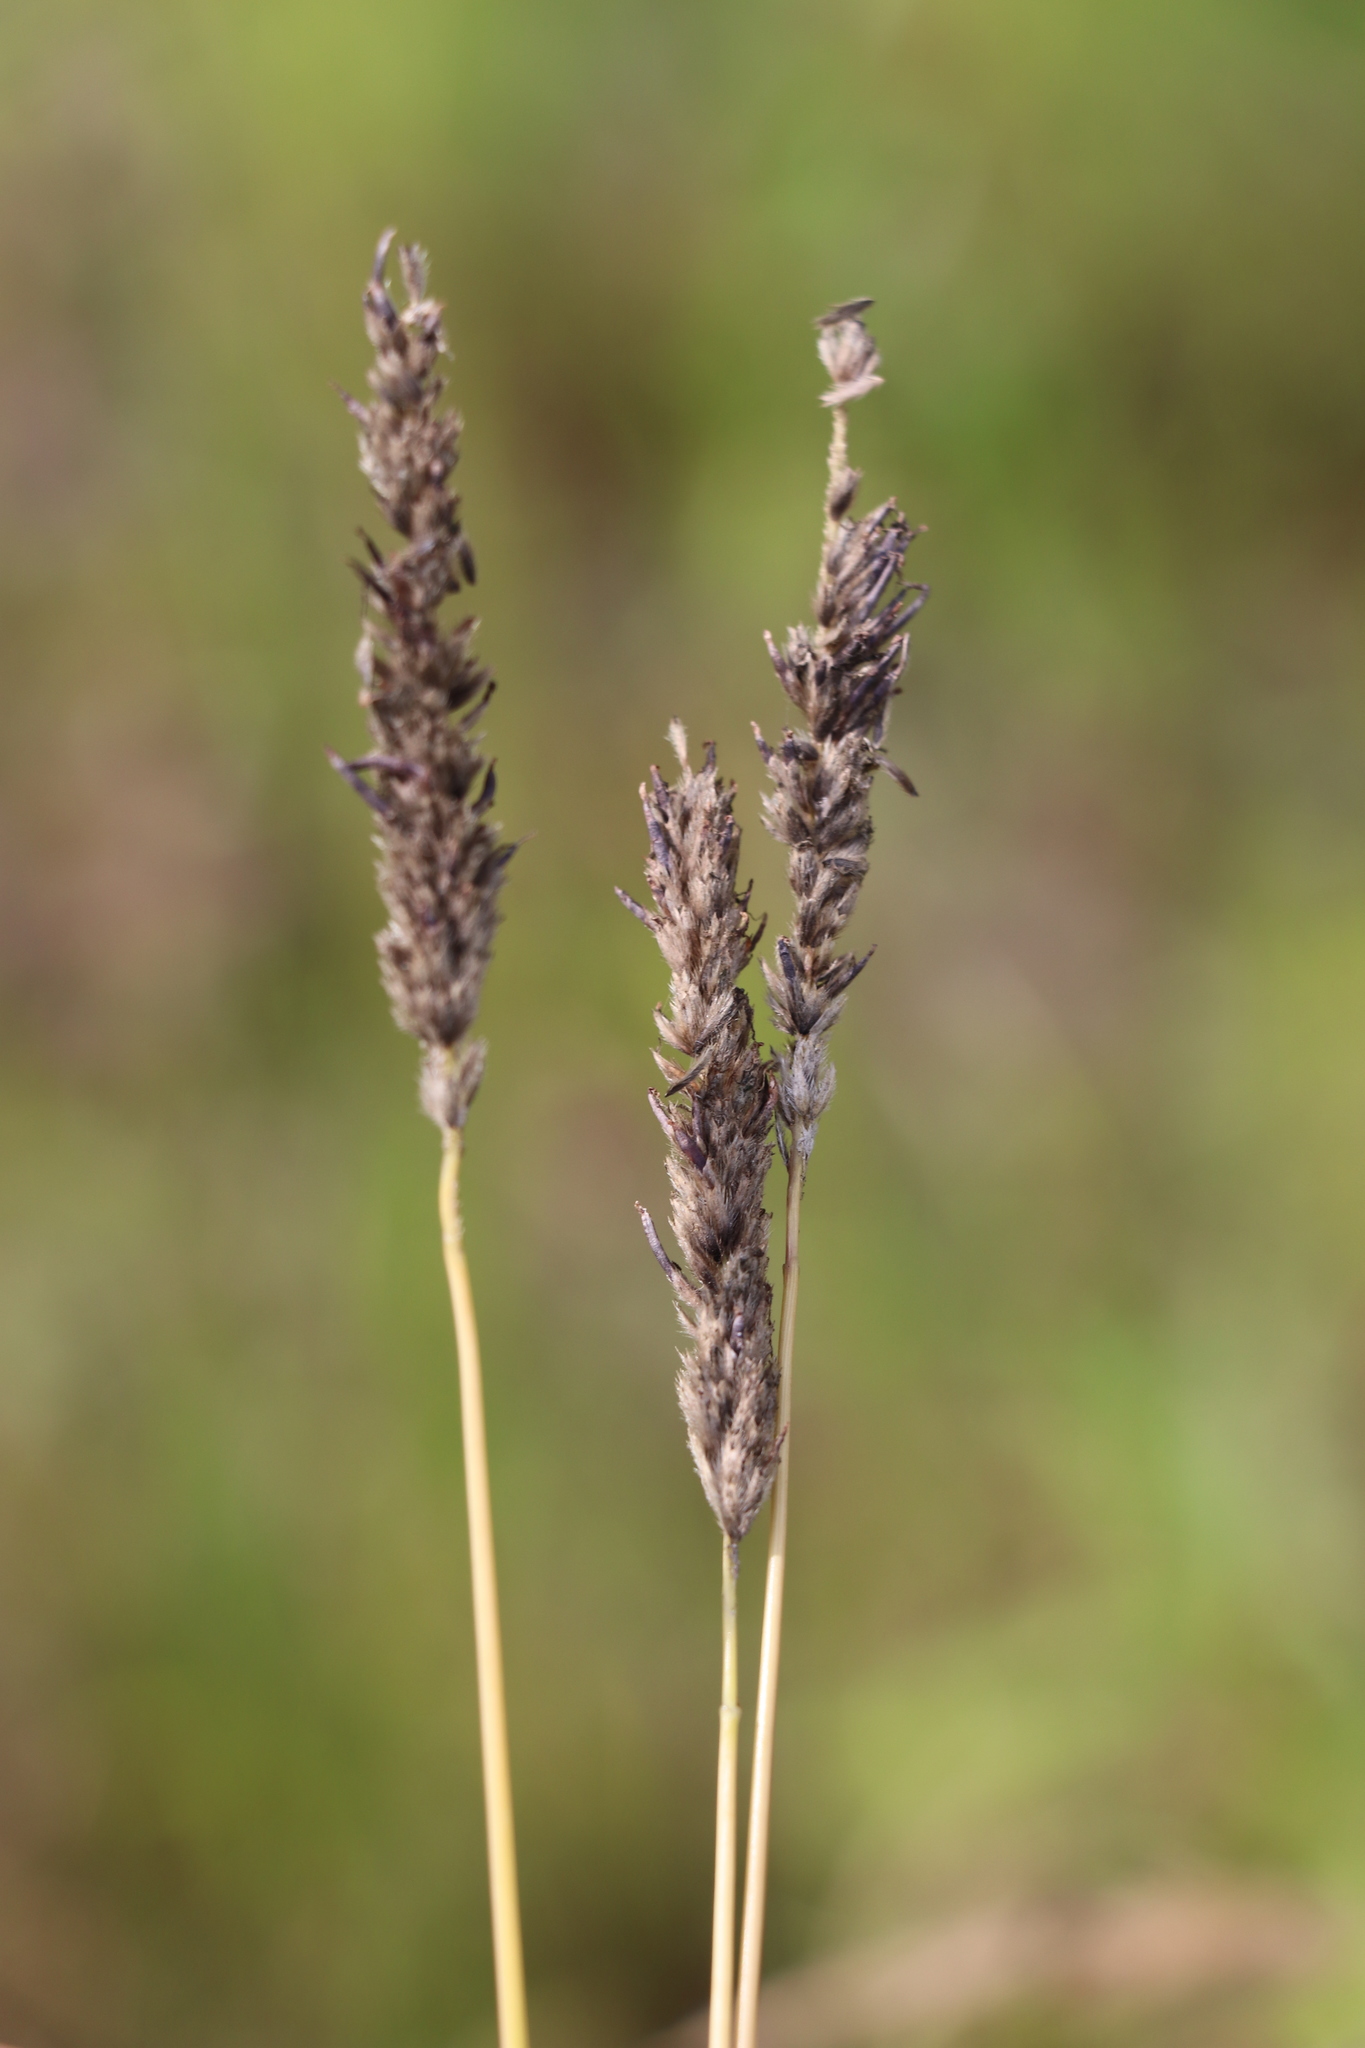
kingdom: Plantae
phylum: Tracheophyta
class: Liliopsida
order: Poales
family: Poaceae
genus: Alopecurus
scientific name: Alopecurus pratensis
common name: Meadow foxtail
